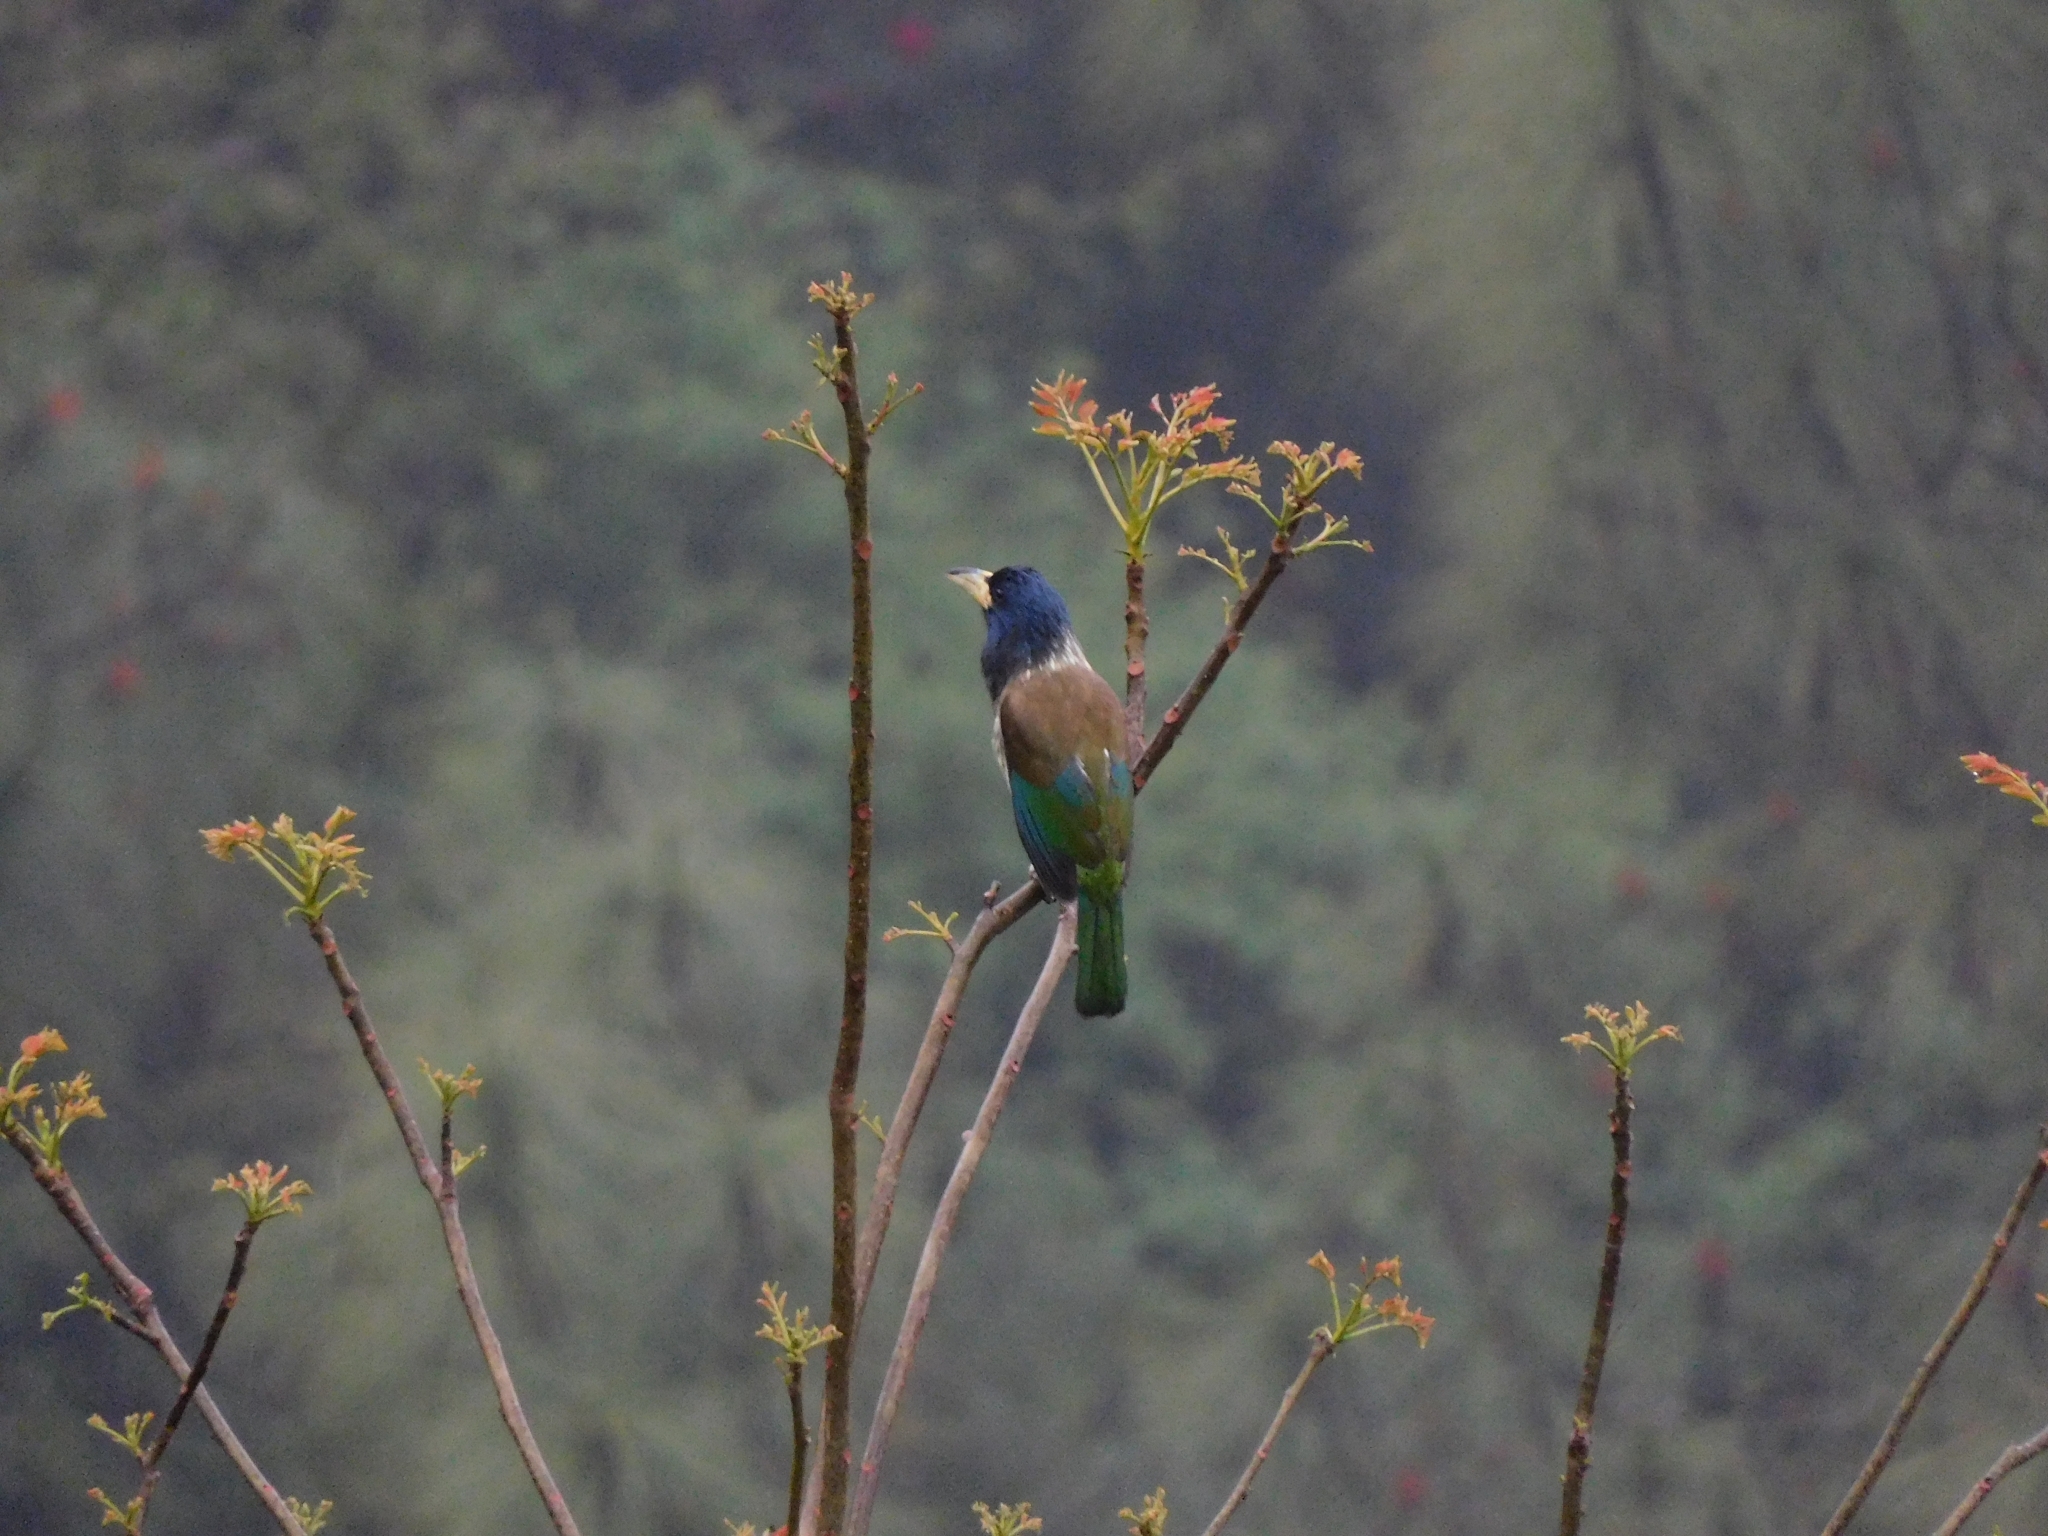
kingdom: Animalia
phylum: Chordata
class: Aves
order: Piciformes
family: Megalaimidae
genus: Psilopogon
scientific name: Psilopogon virens
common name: Great barbet
